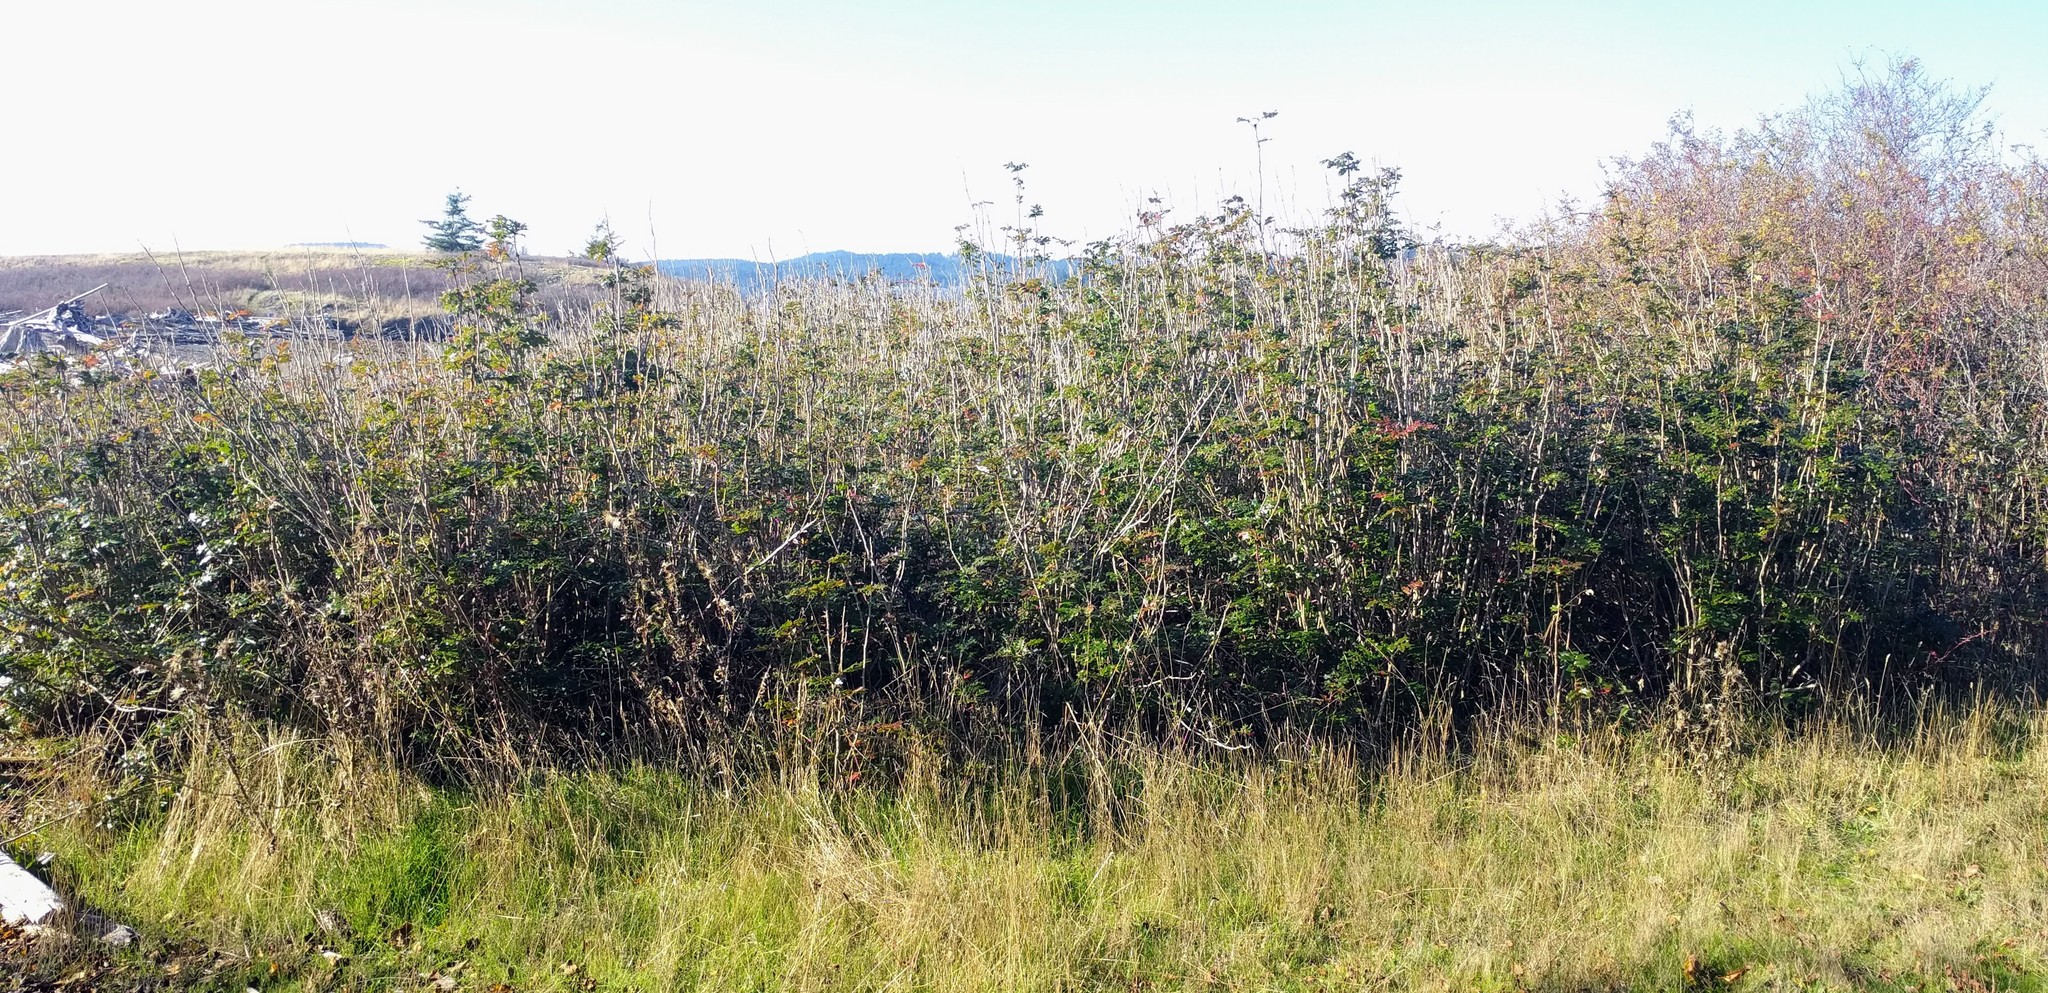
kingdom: Plantae
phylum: Tracheophyta
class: Magnoliopsida
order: Ranunculales
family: Berberidaceae
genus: Mahonia
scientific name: Mahonia aquifolium
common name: Oregon-grape
